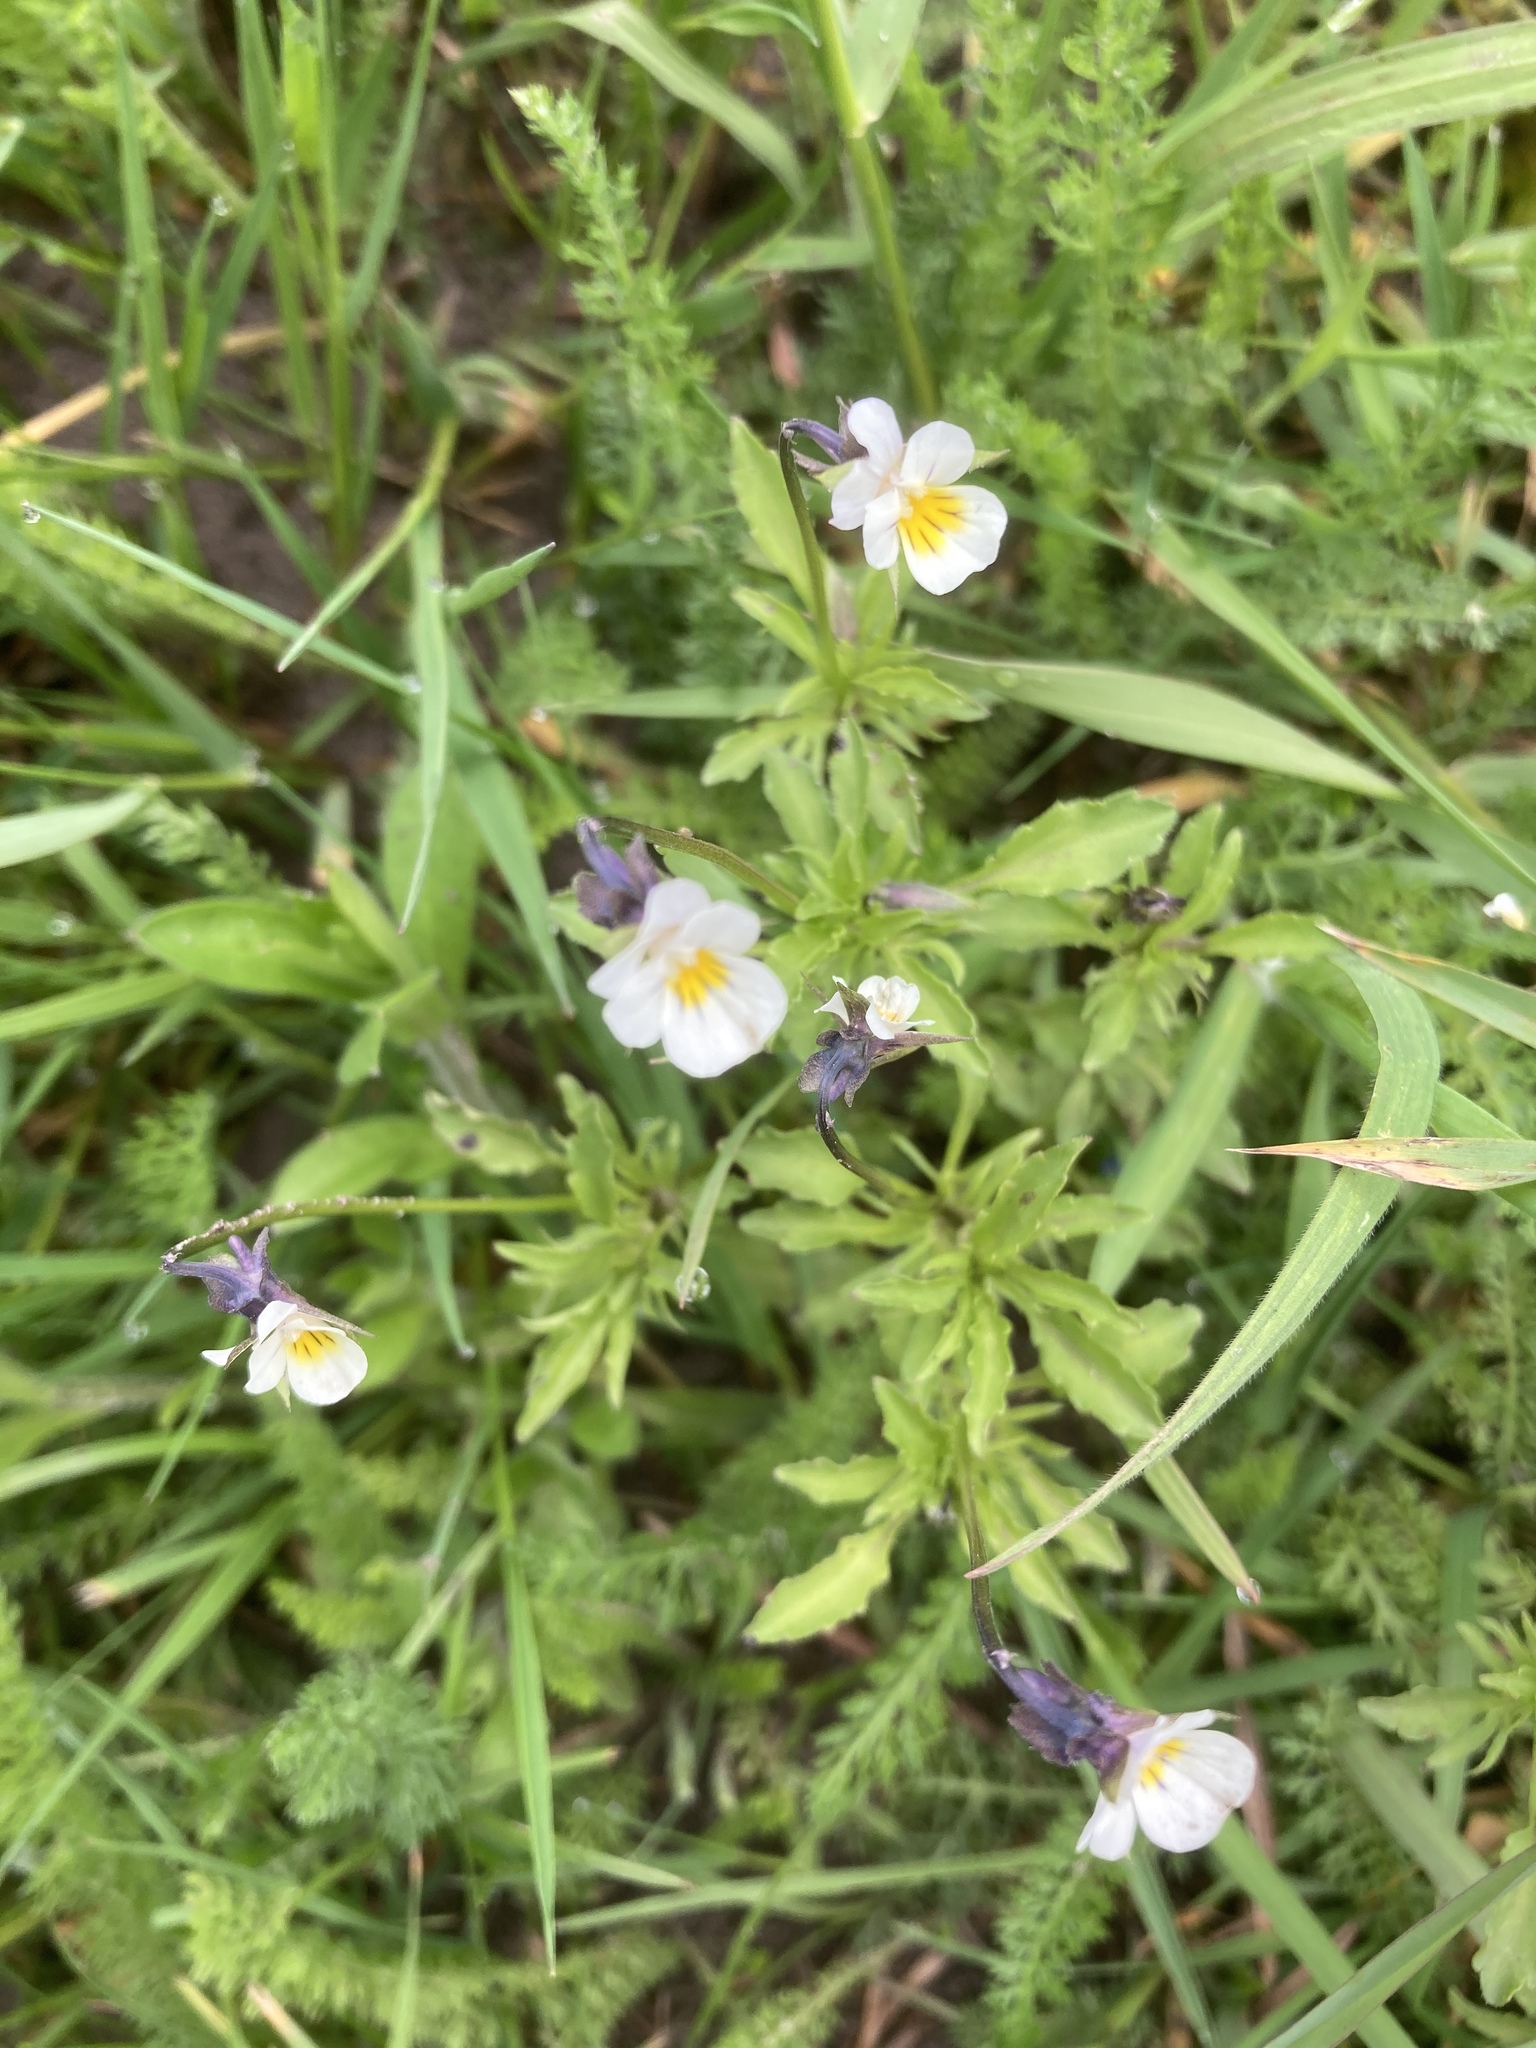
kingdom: Plantae
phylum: Tracheophyta
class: Magnoliopsida
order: Malpighiales
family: Violaceae
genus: Viola
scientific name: Viola arvensis
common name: Field pansy
